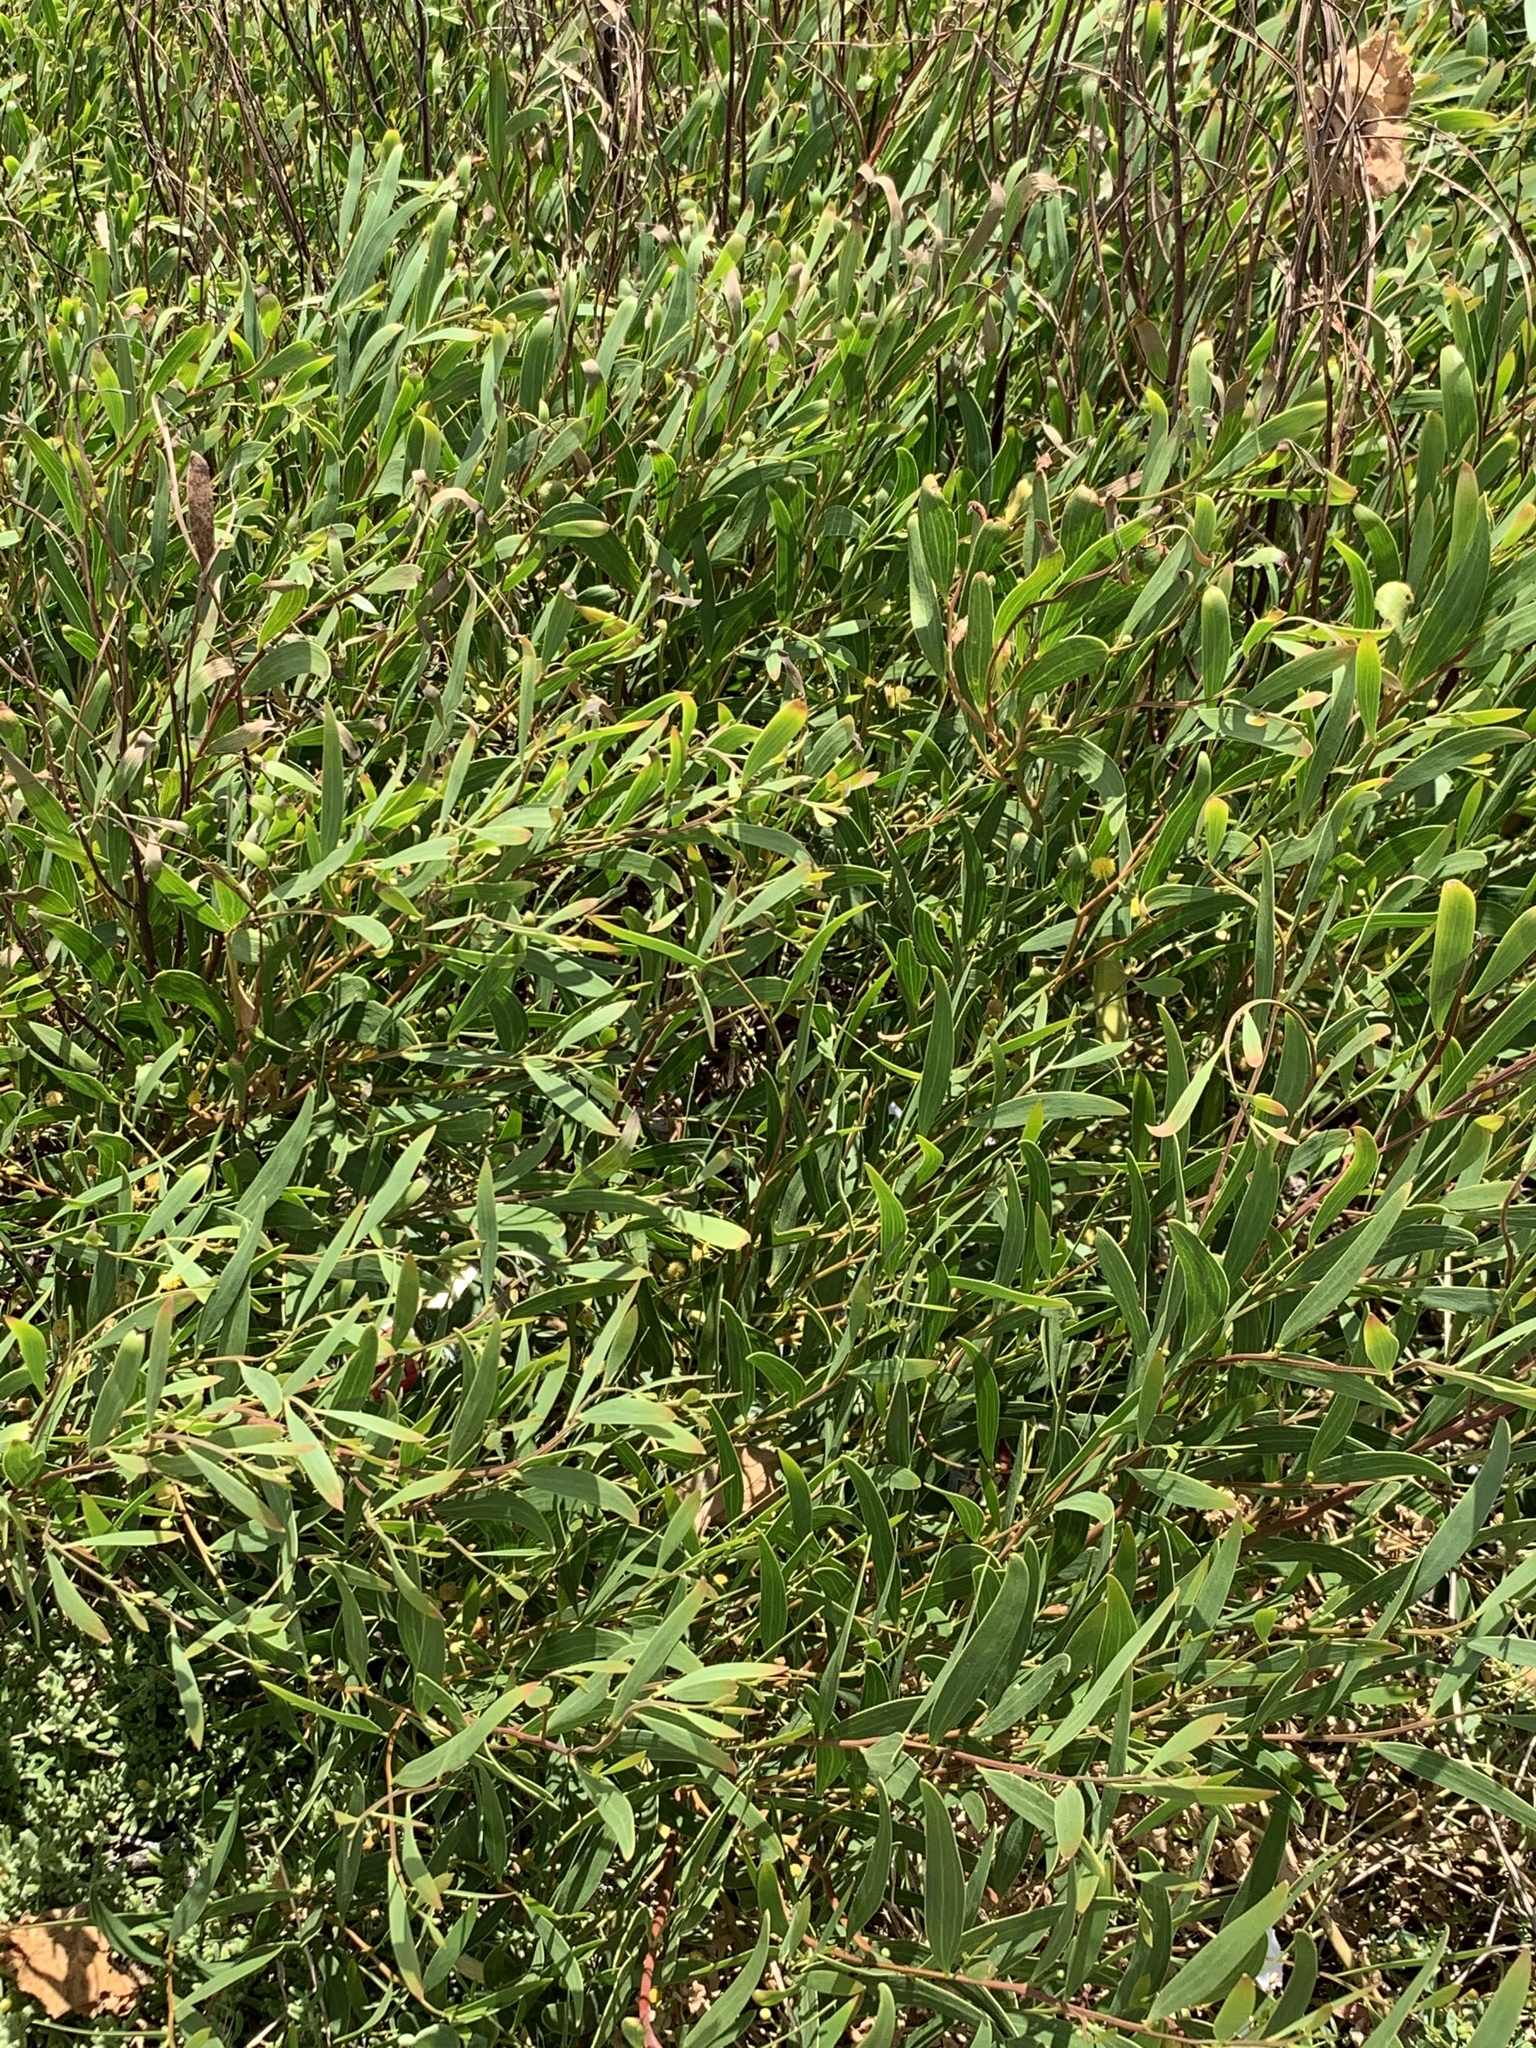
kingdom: Plantae
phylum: Tracheophyta
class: Magnoliopsida
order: Fabales
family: Fabaceae
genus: Acacia
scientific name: Acacia cyclops
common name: Coastal wattle
